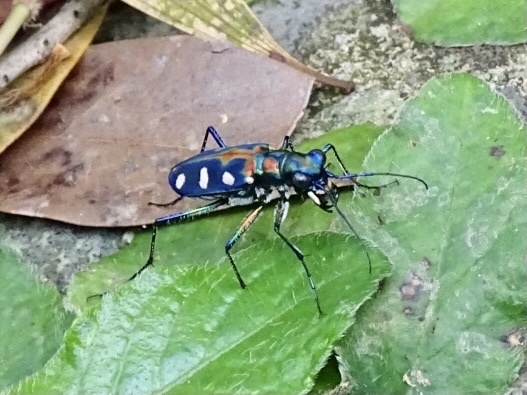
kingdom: Animalia
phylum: Arthropoda
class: Insecta
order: Coleoptera
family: Carabidae
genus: Cicindela
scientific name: Cicindela juxtata
